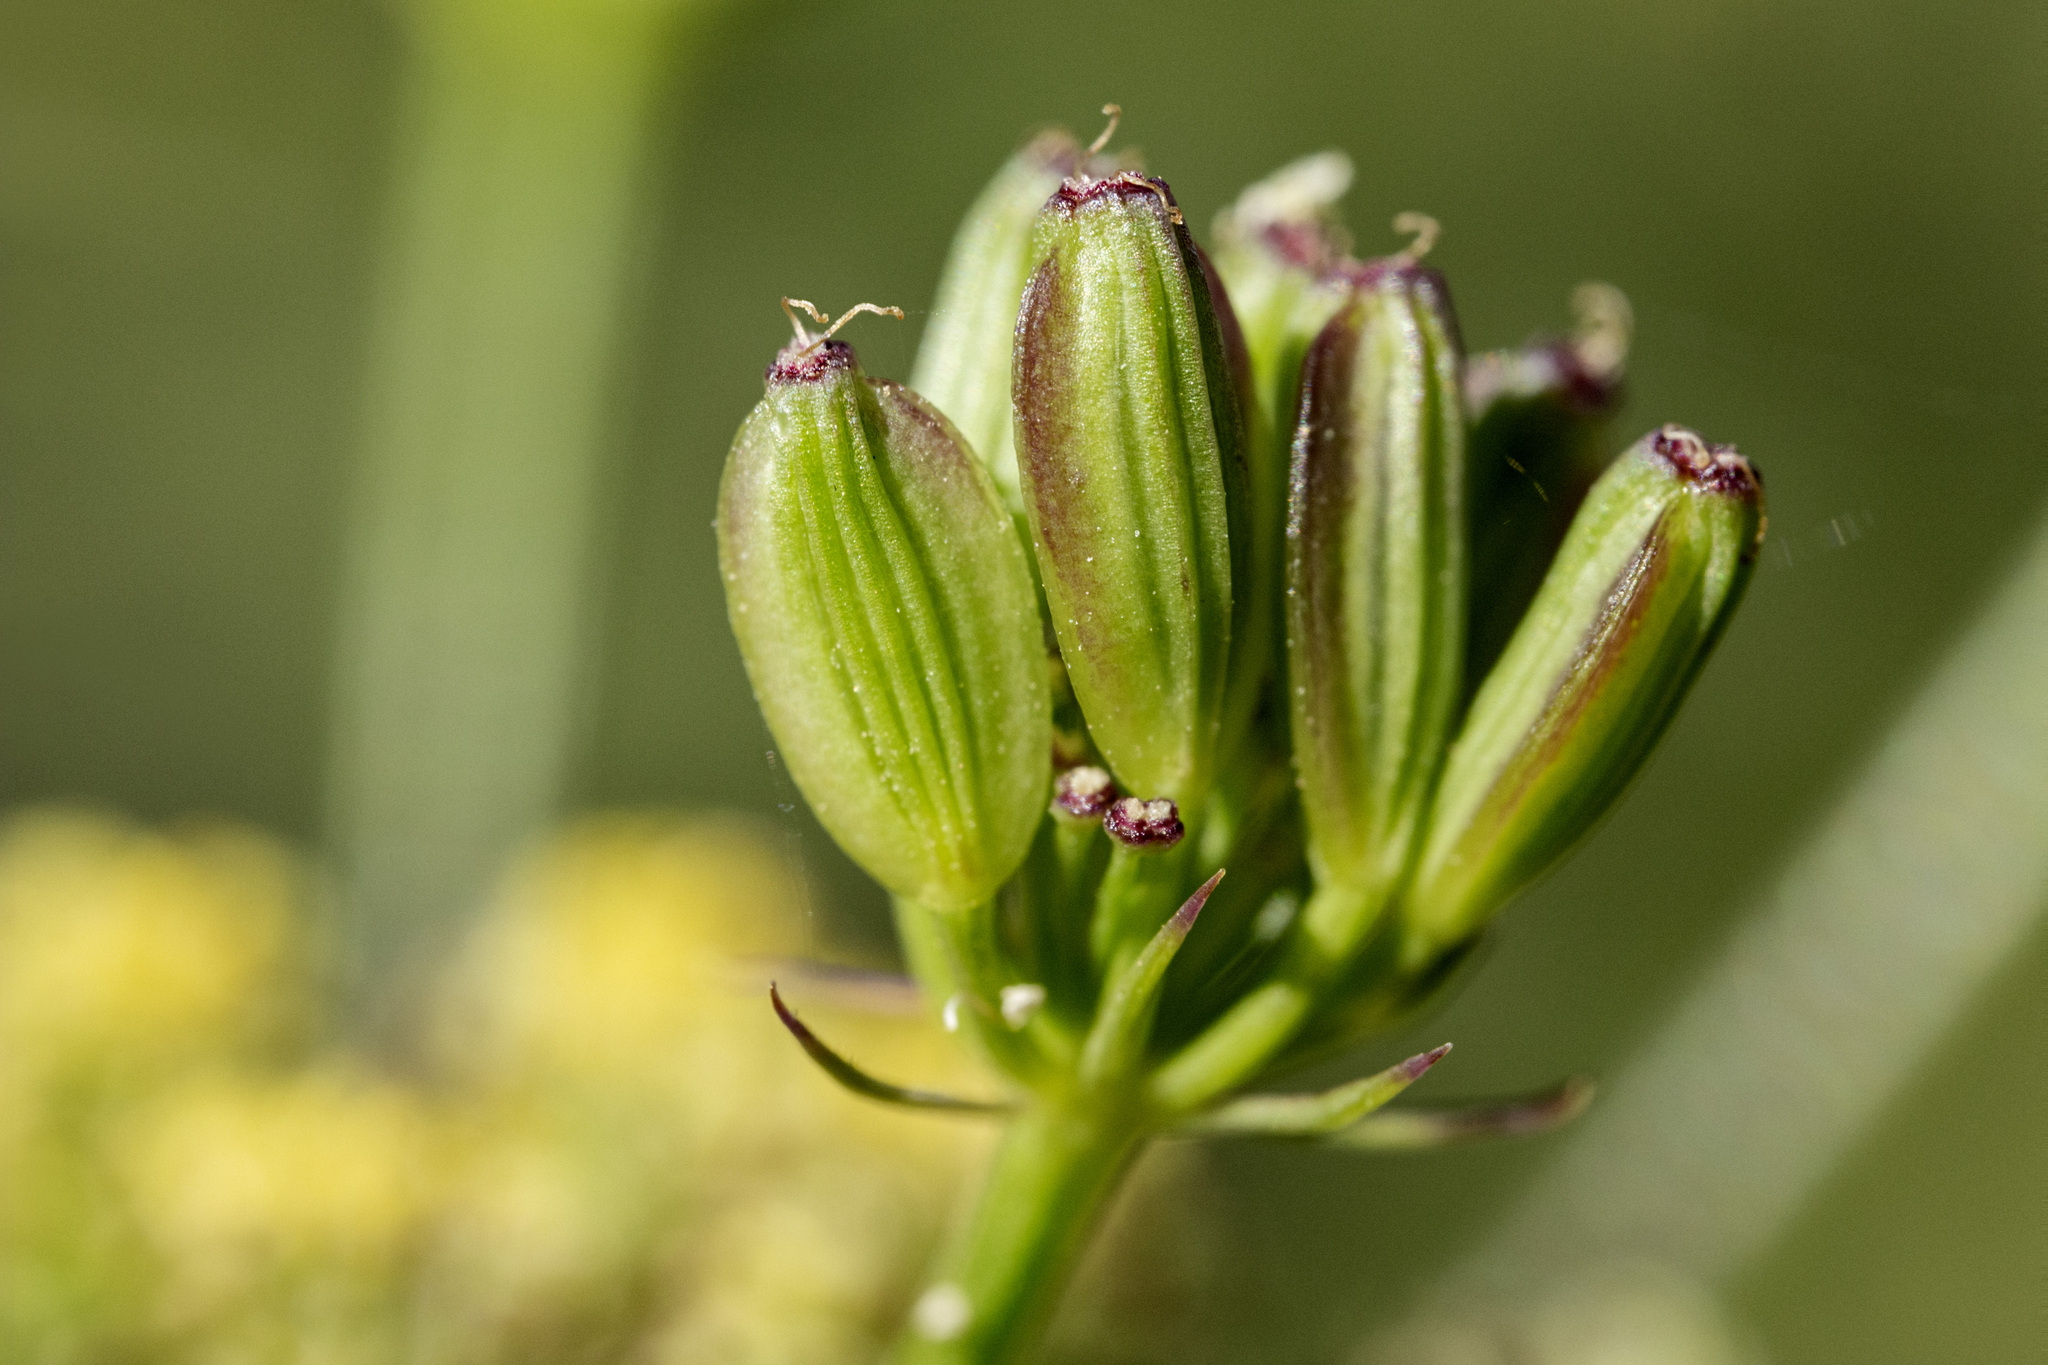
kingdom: Plantae
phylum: Tracheophyta
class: Magnoliopsida
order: Apiales
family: Apiaceae
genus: Lomatium
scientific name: Lomatium simplex
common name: Great basin biscuitroot
